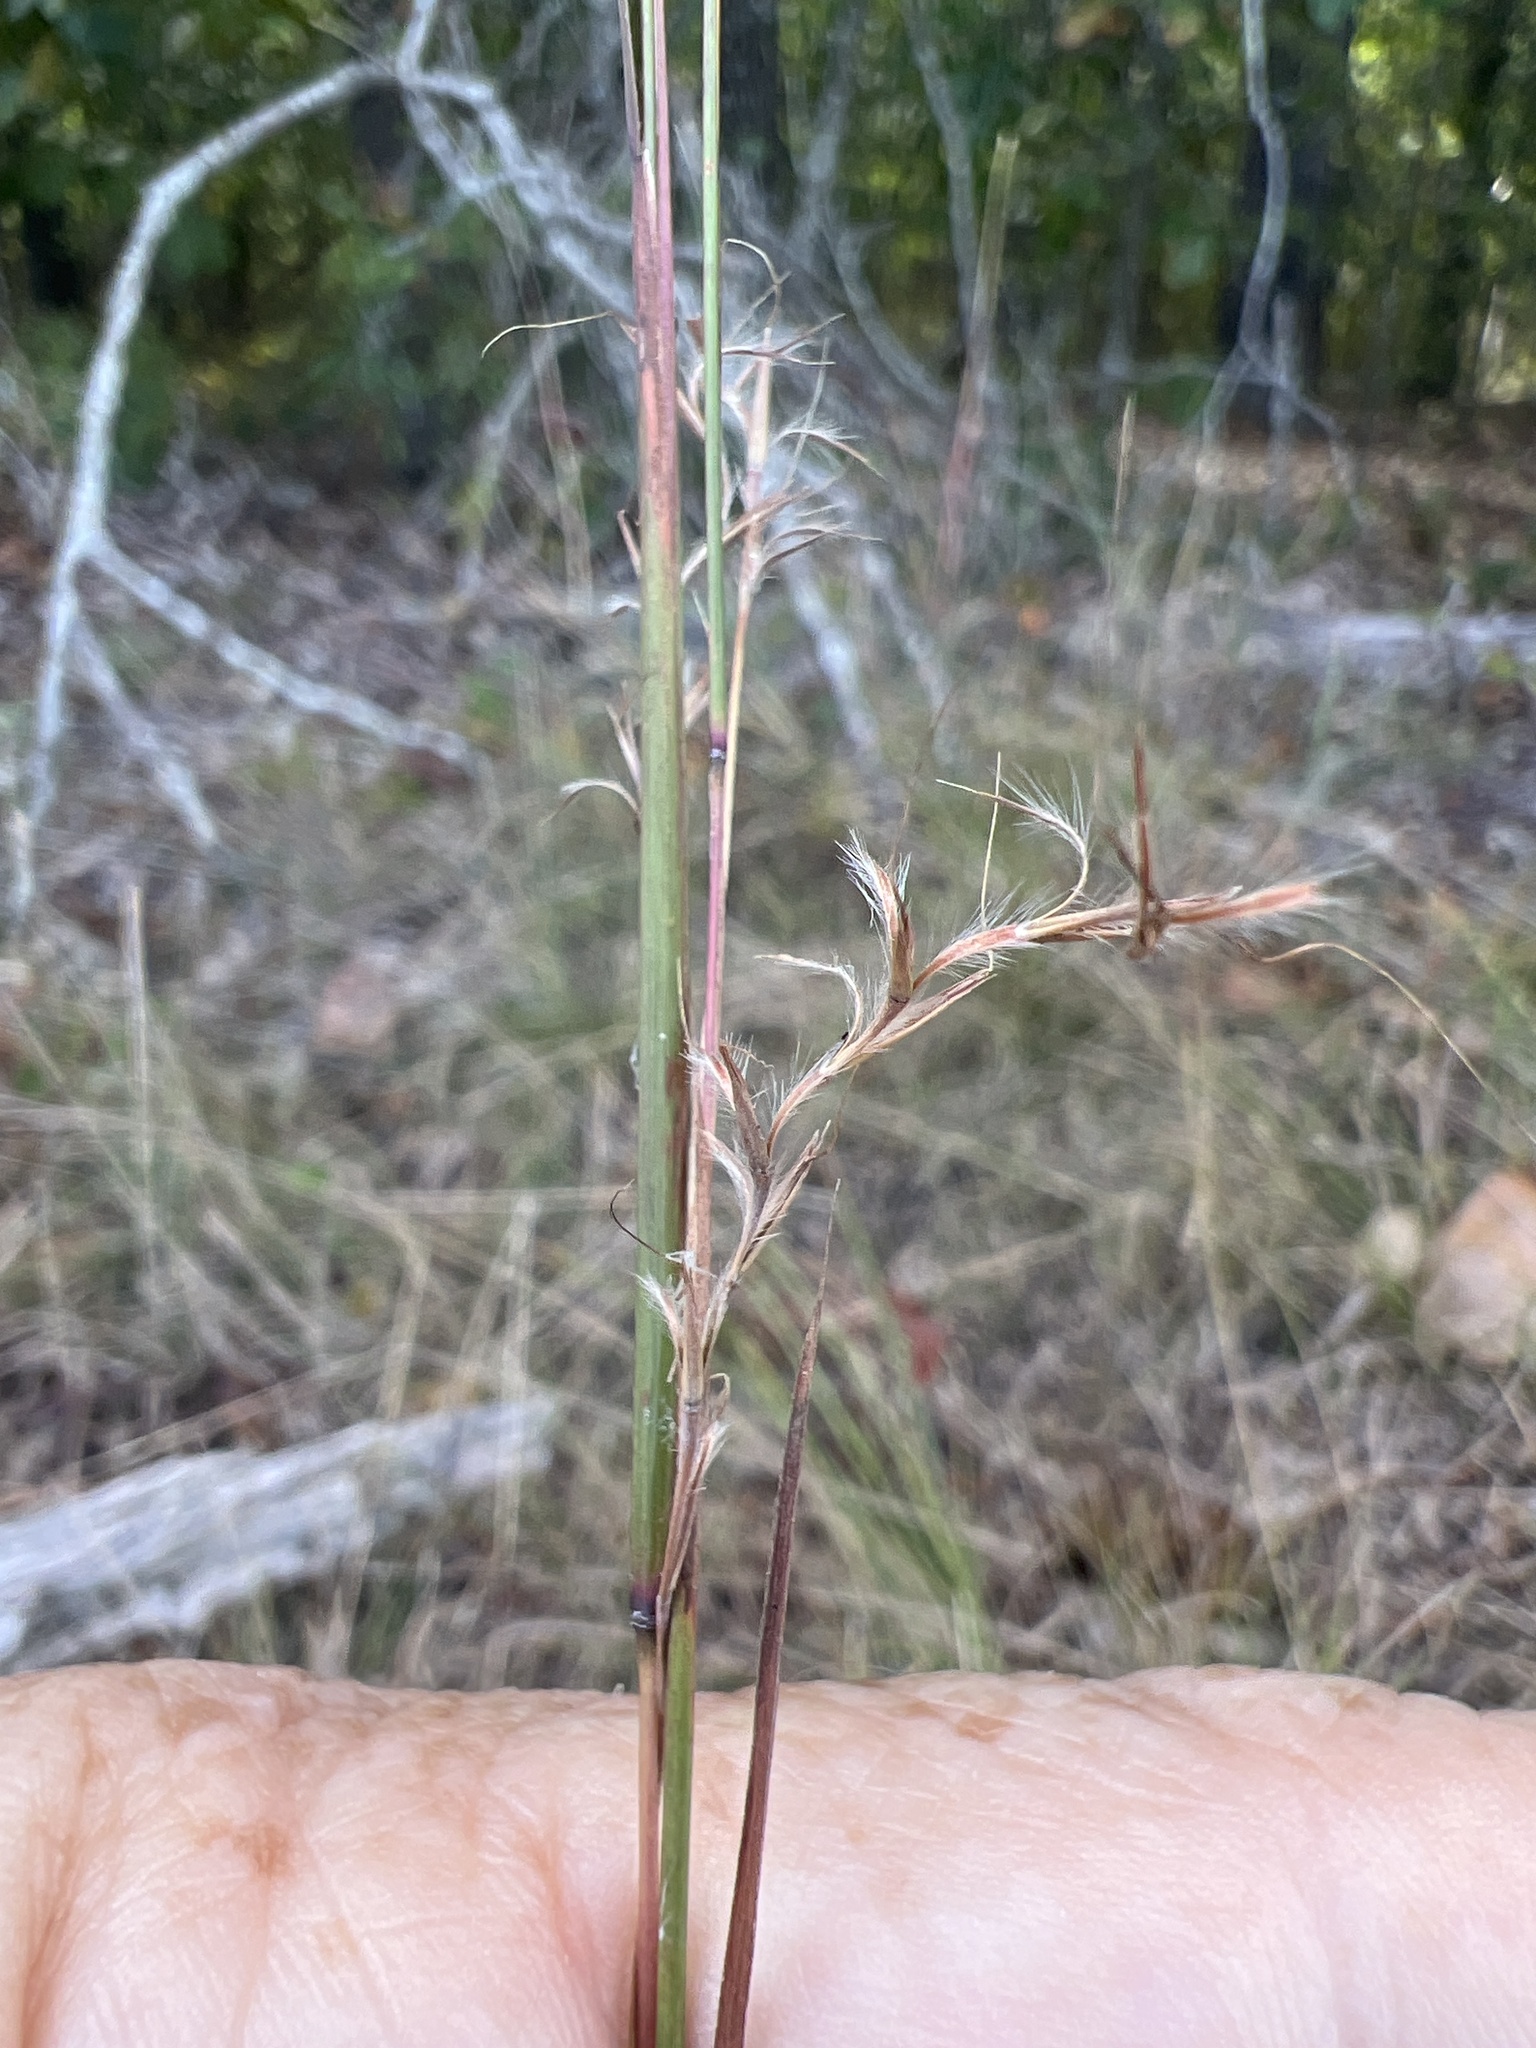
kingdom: Plantae
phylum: Tracheophyta
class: Liliopsida
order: Poales
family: Poaceae
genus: Schizachyrium
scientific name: Schizachyrium scoparium
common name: Little bluestem
